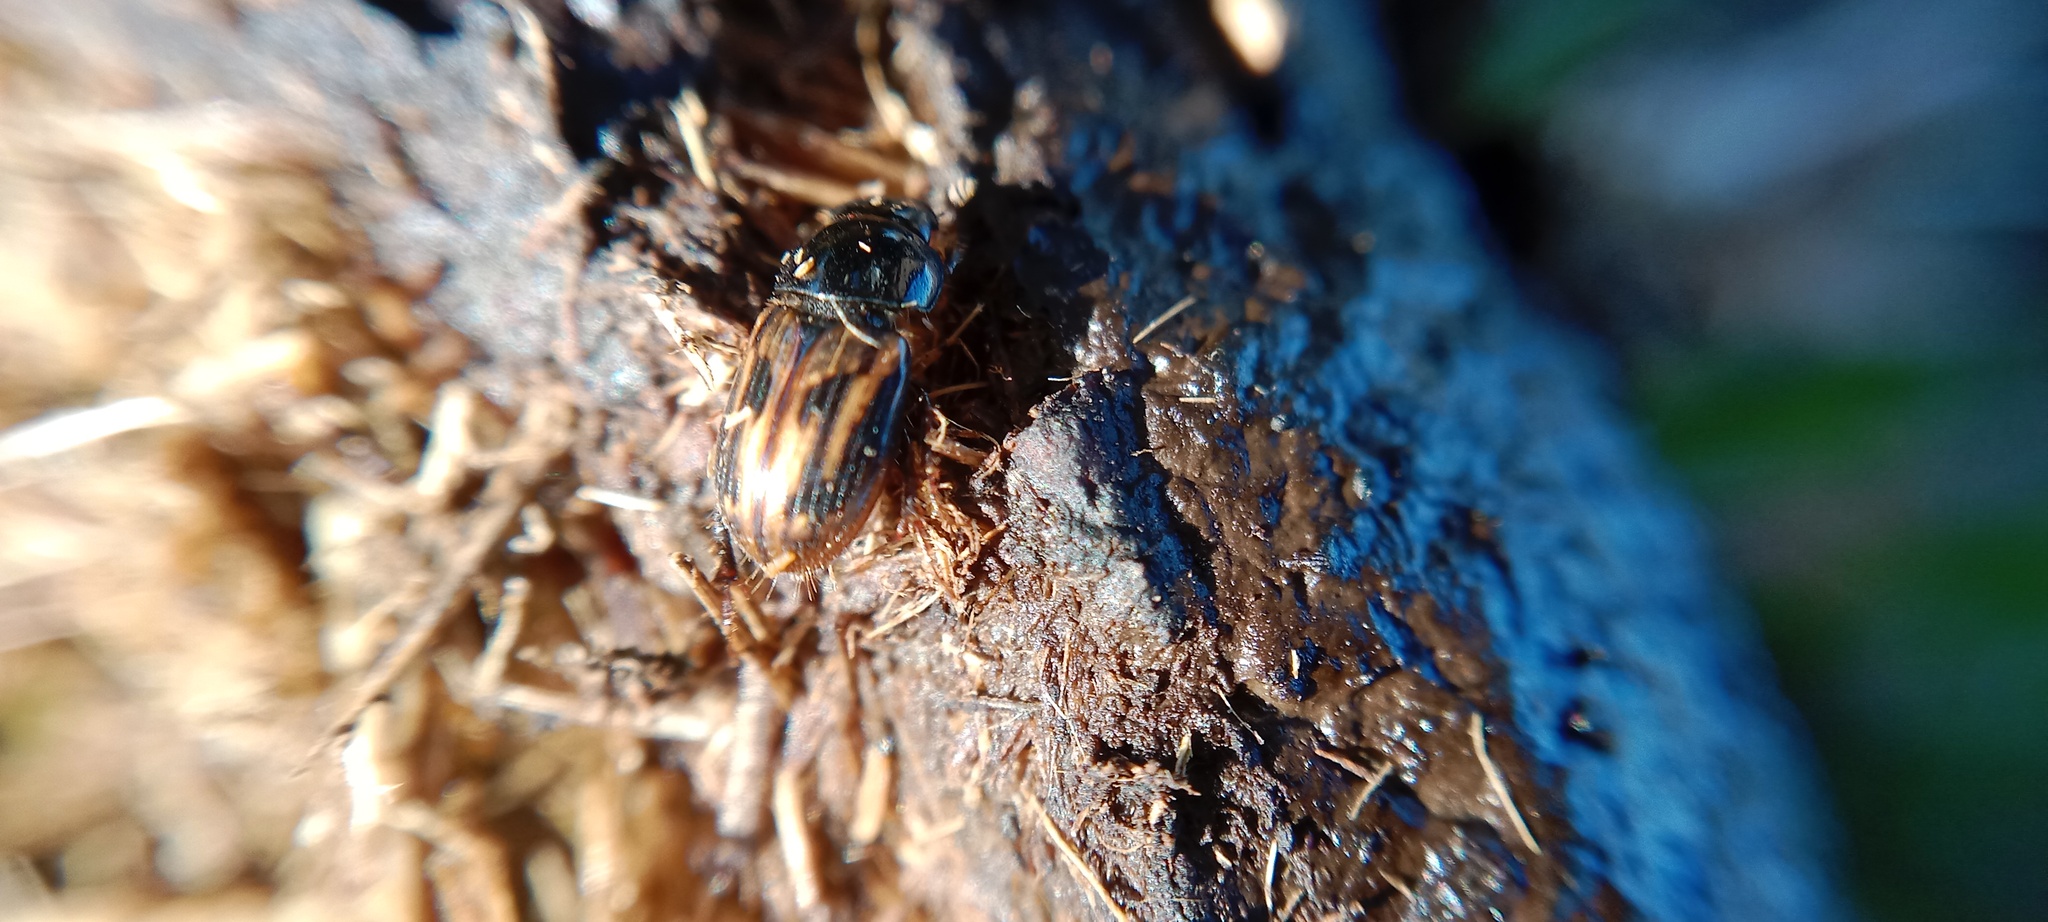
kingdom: Animalia
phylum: Arthropoda
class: Insecta
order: Coleoptera
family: Scarabaeidae
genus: Chilothorax
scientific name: Chilothorax distinctus
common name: Maculated dung beetle
